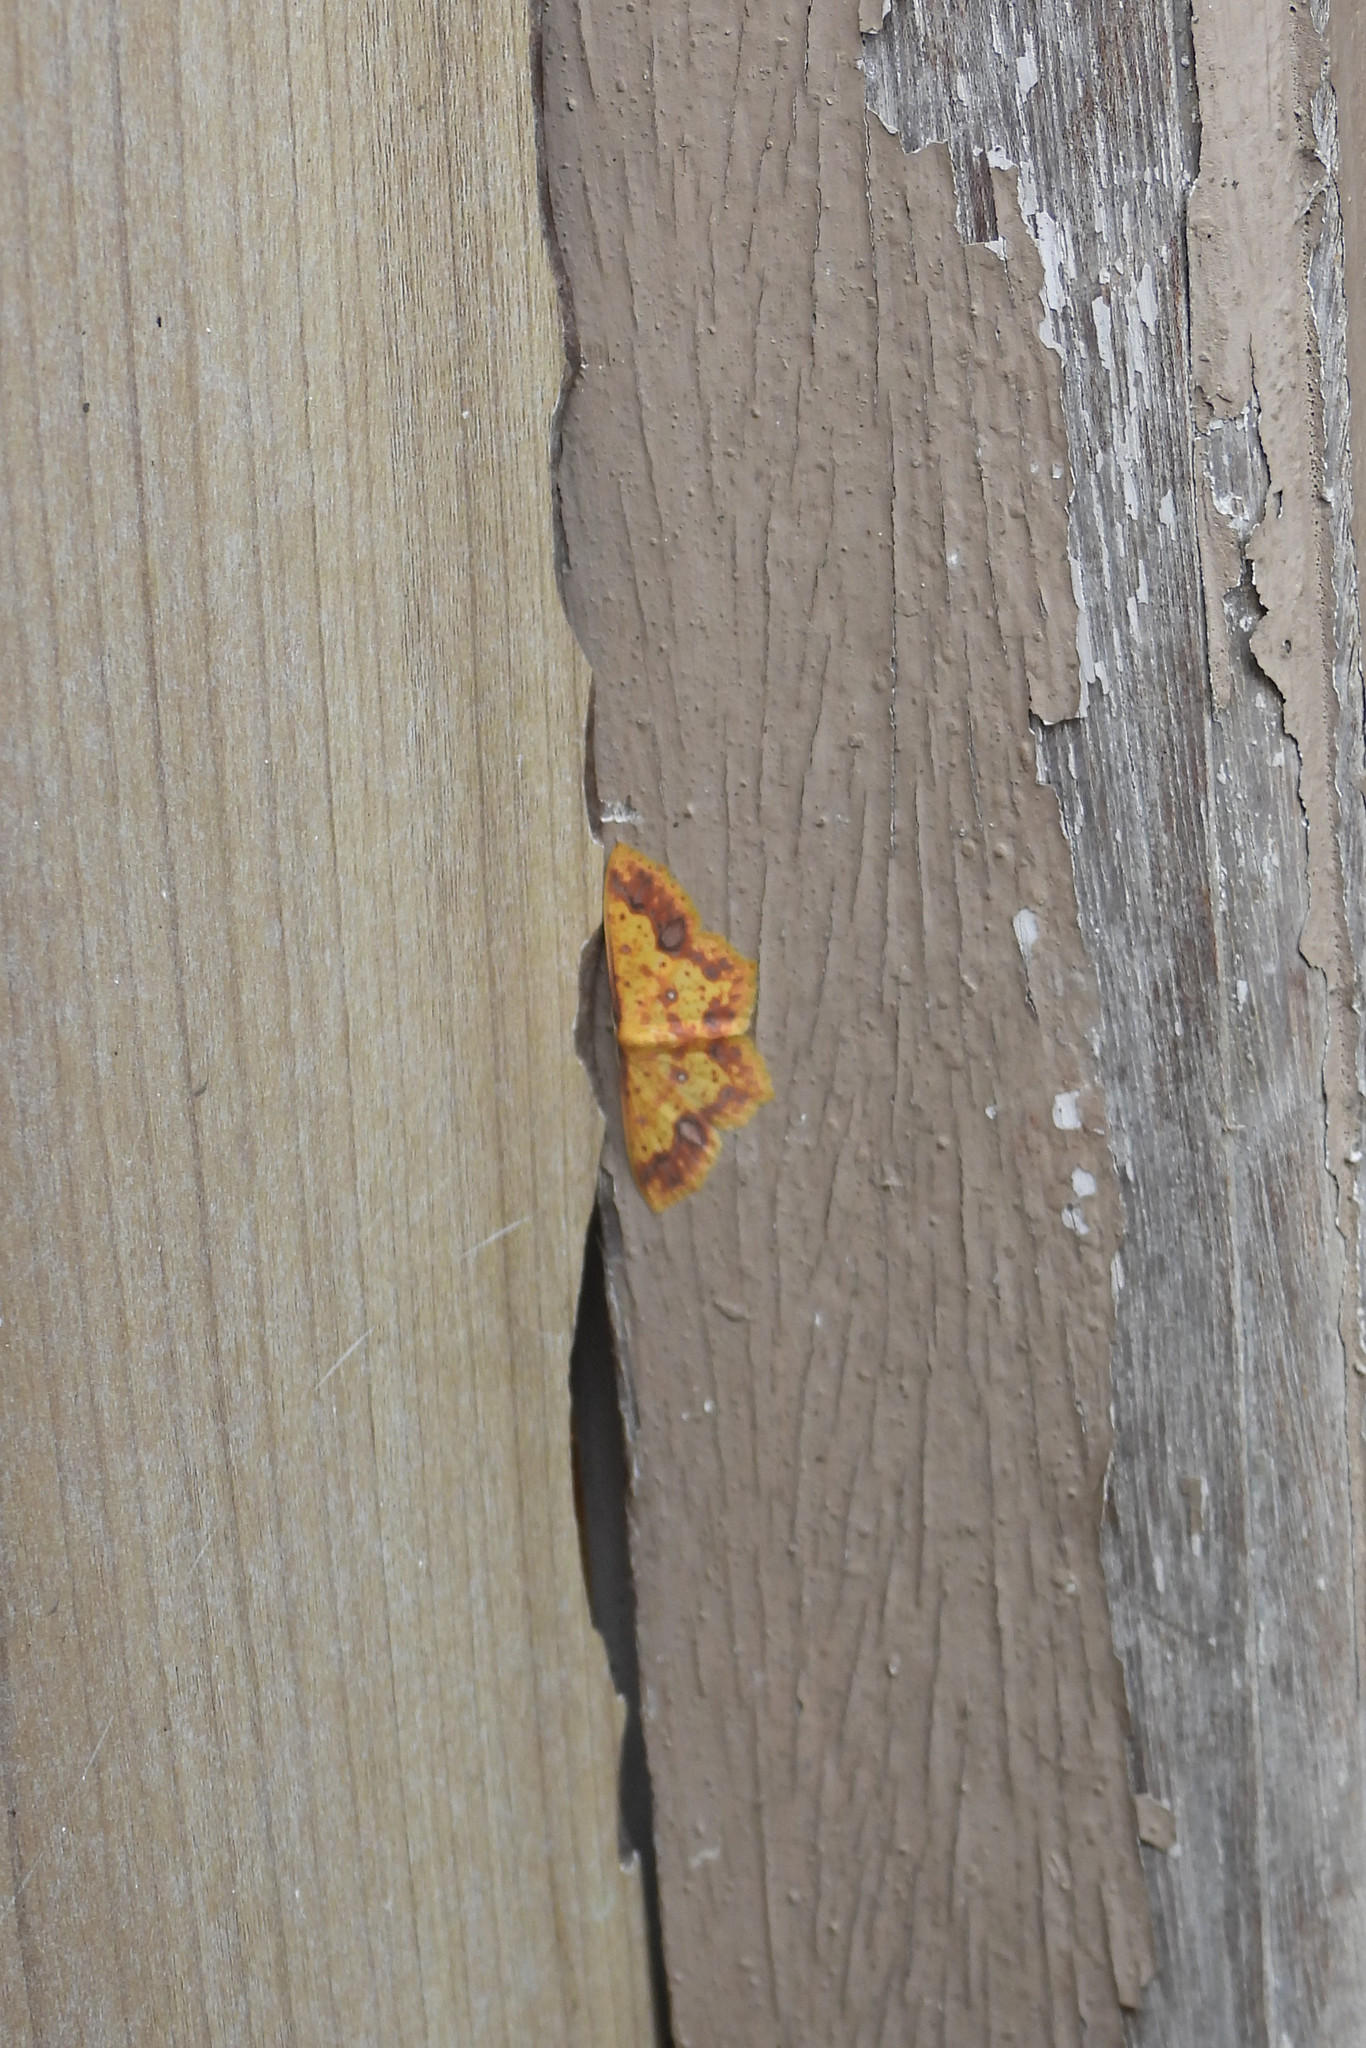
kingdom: Animalia
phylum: Arthropoda
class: Insecta
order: Lepidoptera
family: Geometridae
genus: Synegiodes
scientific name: Synegiodes histrionaria
